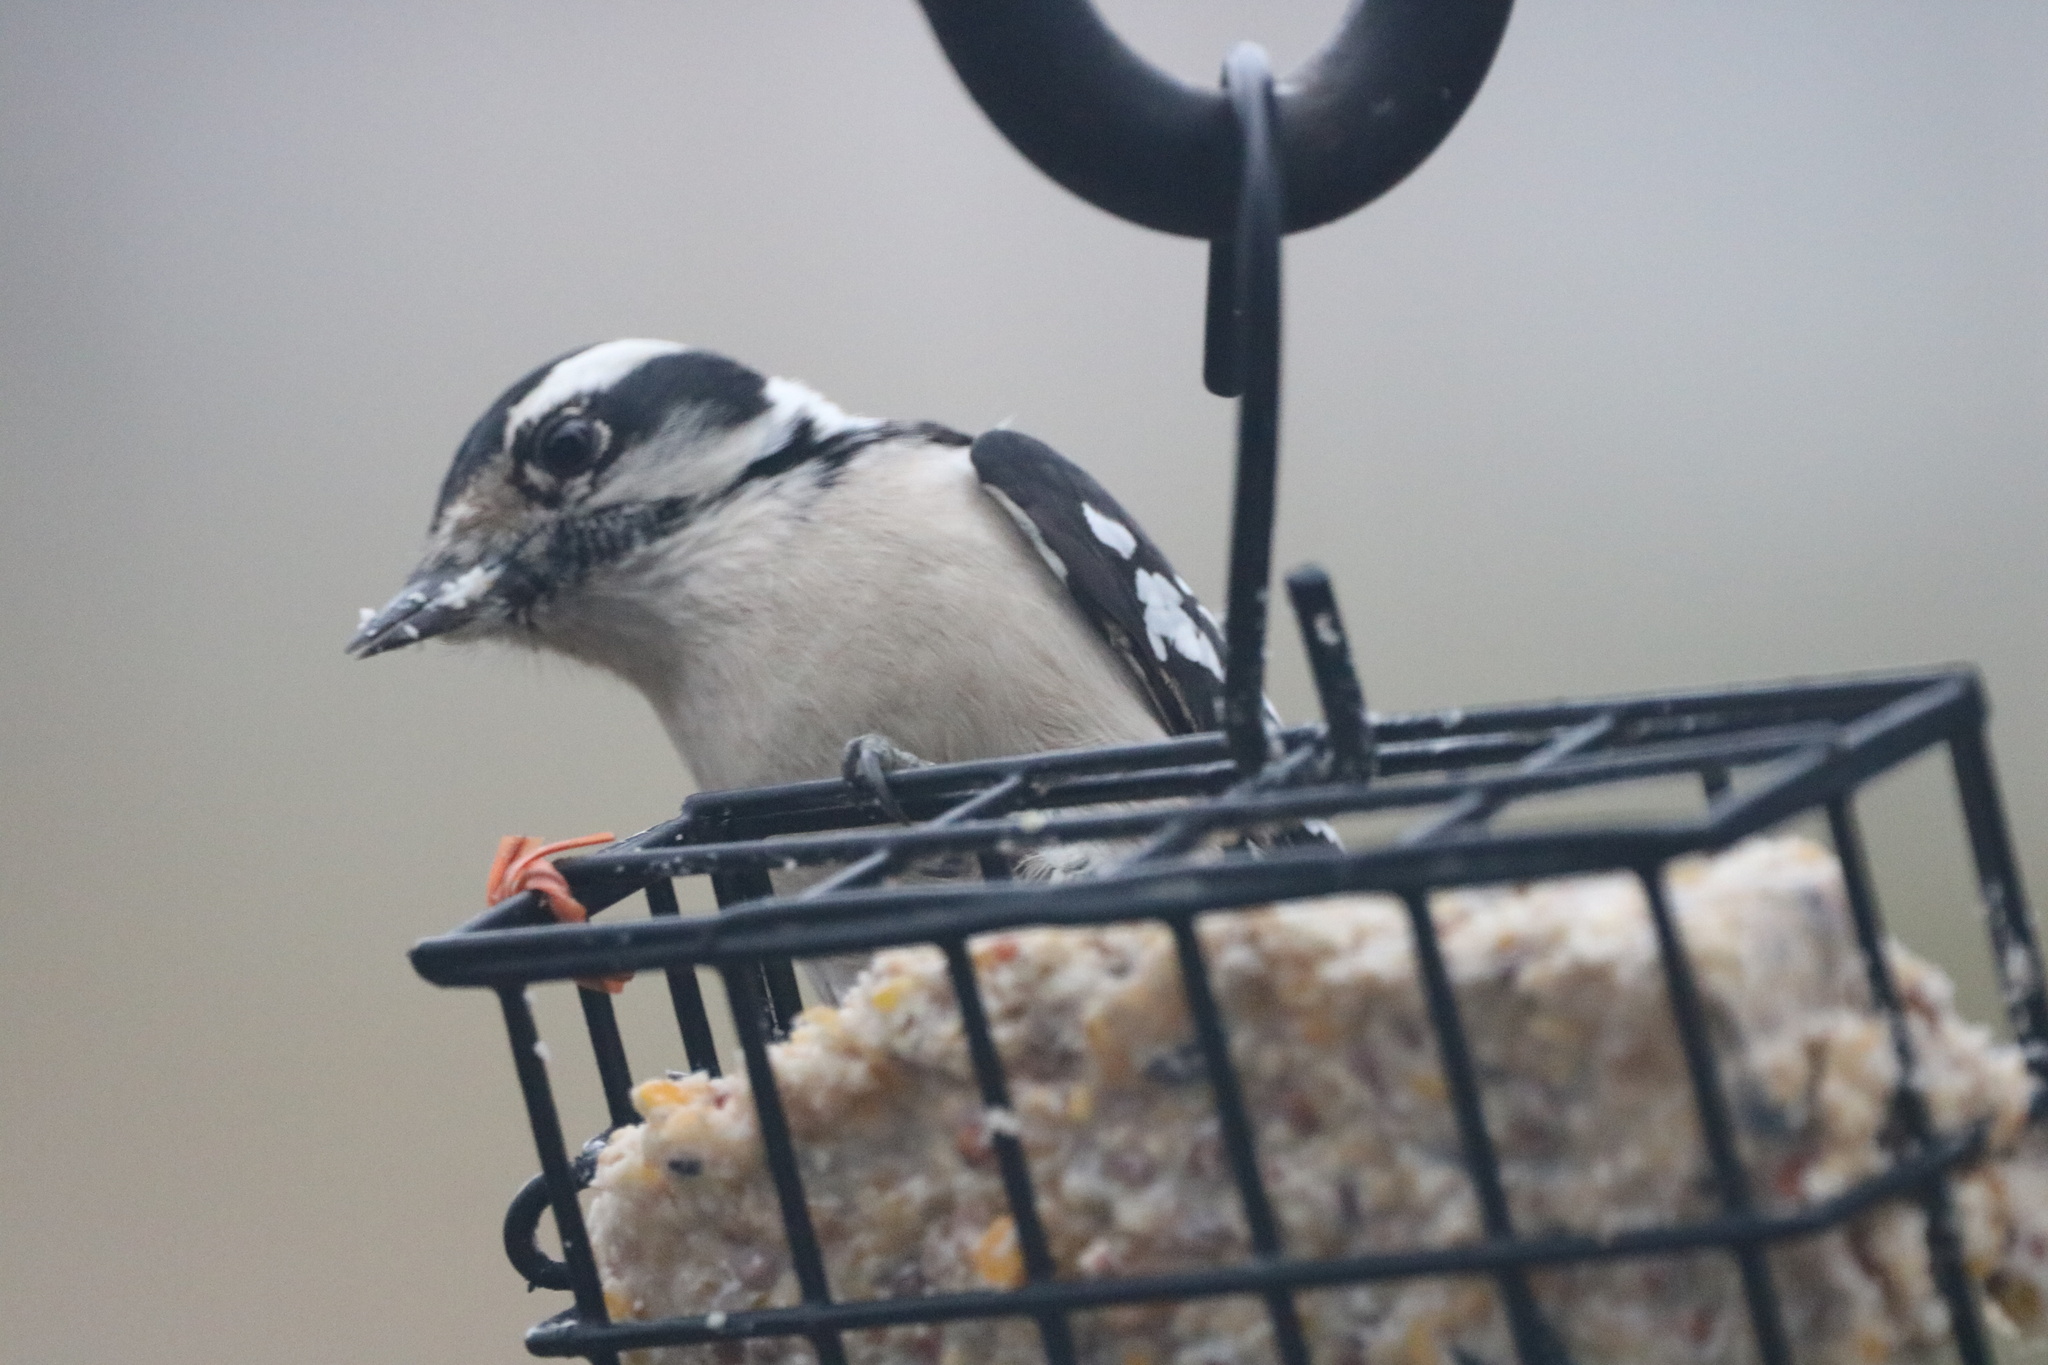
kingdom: Animalia
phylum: Chordata
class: Aves
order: Piciformes
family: Picidae
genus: Dryobates
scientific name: Dryobates pubescens
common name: Downy woodpecker
